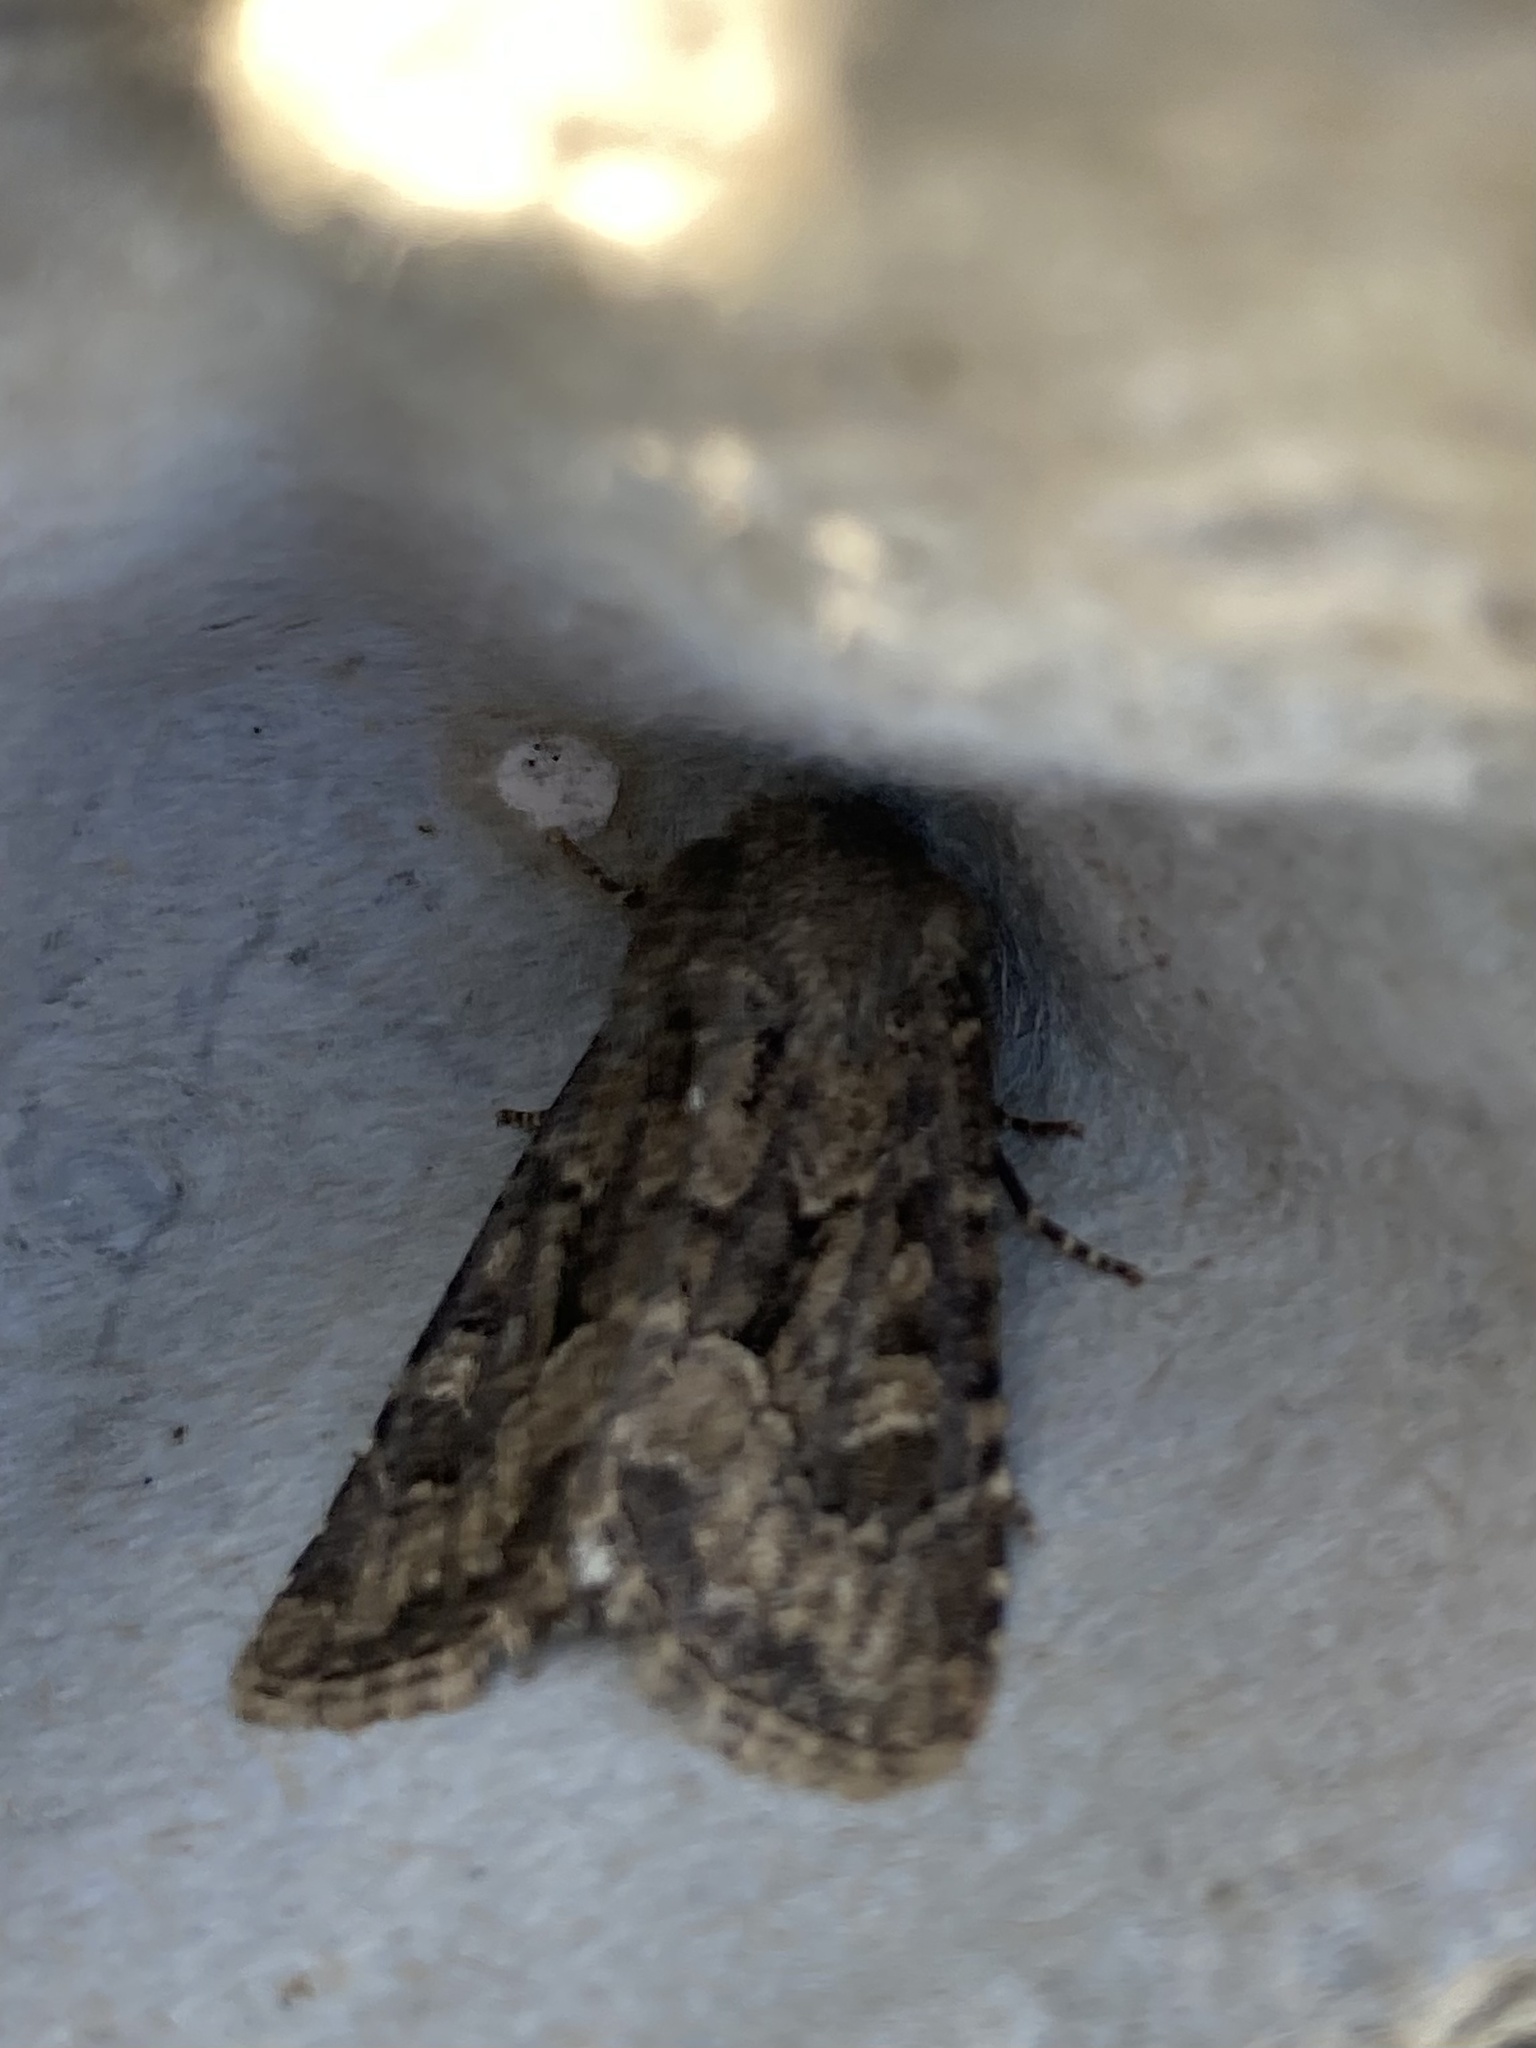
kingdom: Animalia
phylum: Arthropoda
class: Insecta
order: Lepidoptera
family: Noctuidae
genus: Luperina
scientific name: Luperina testacea
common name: Flounced rustic
